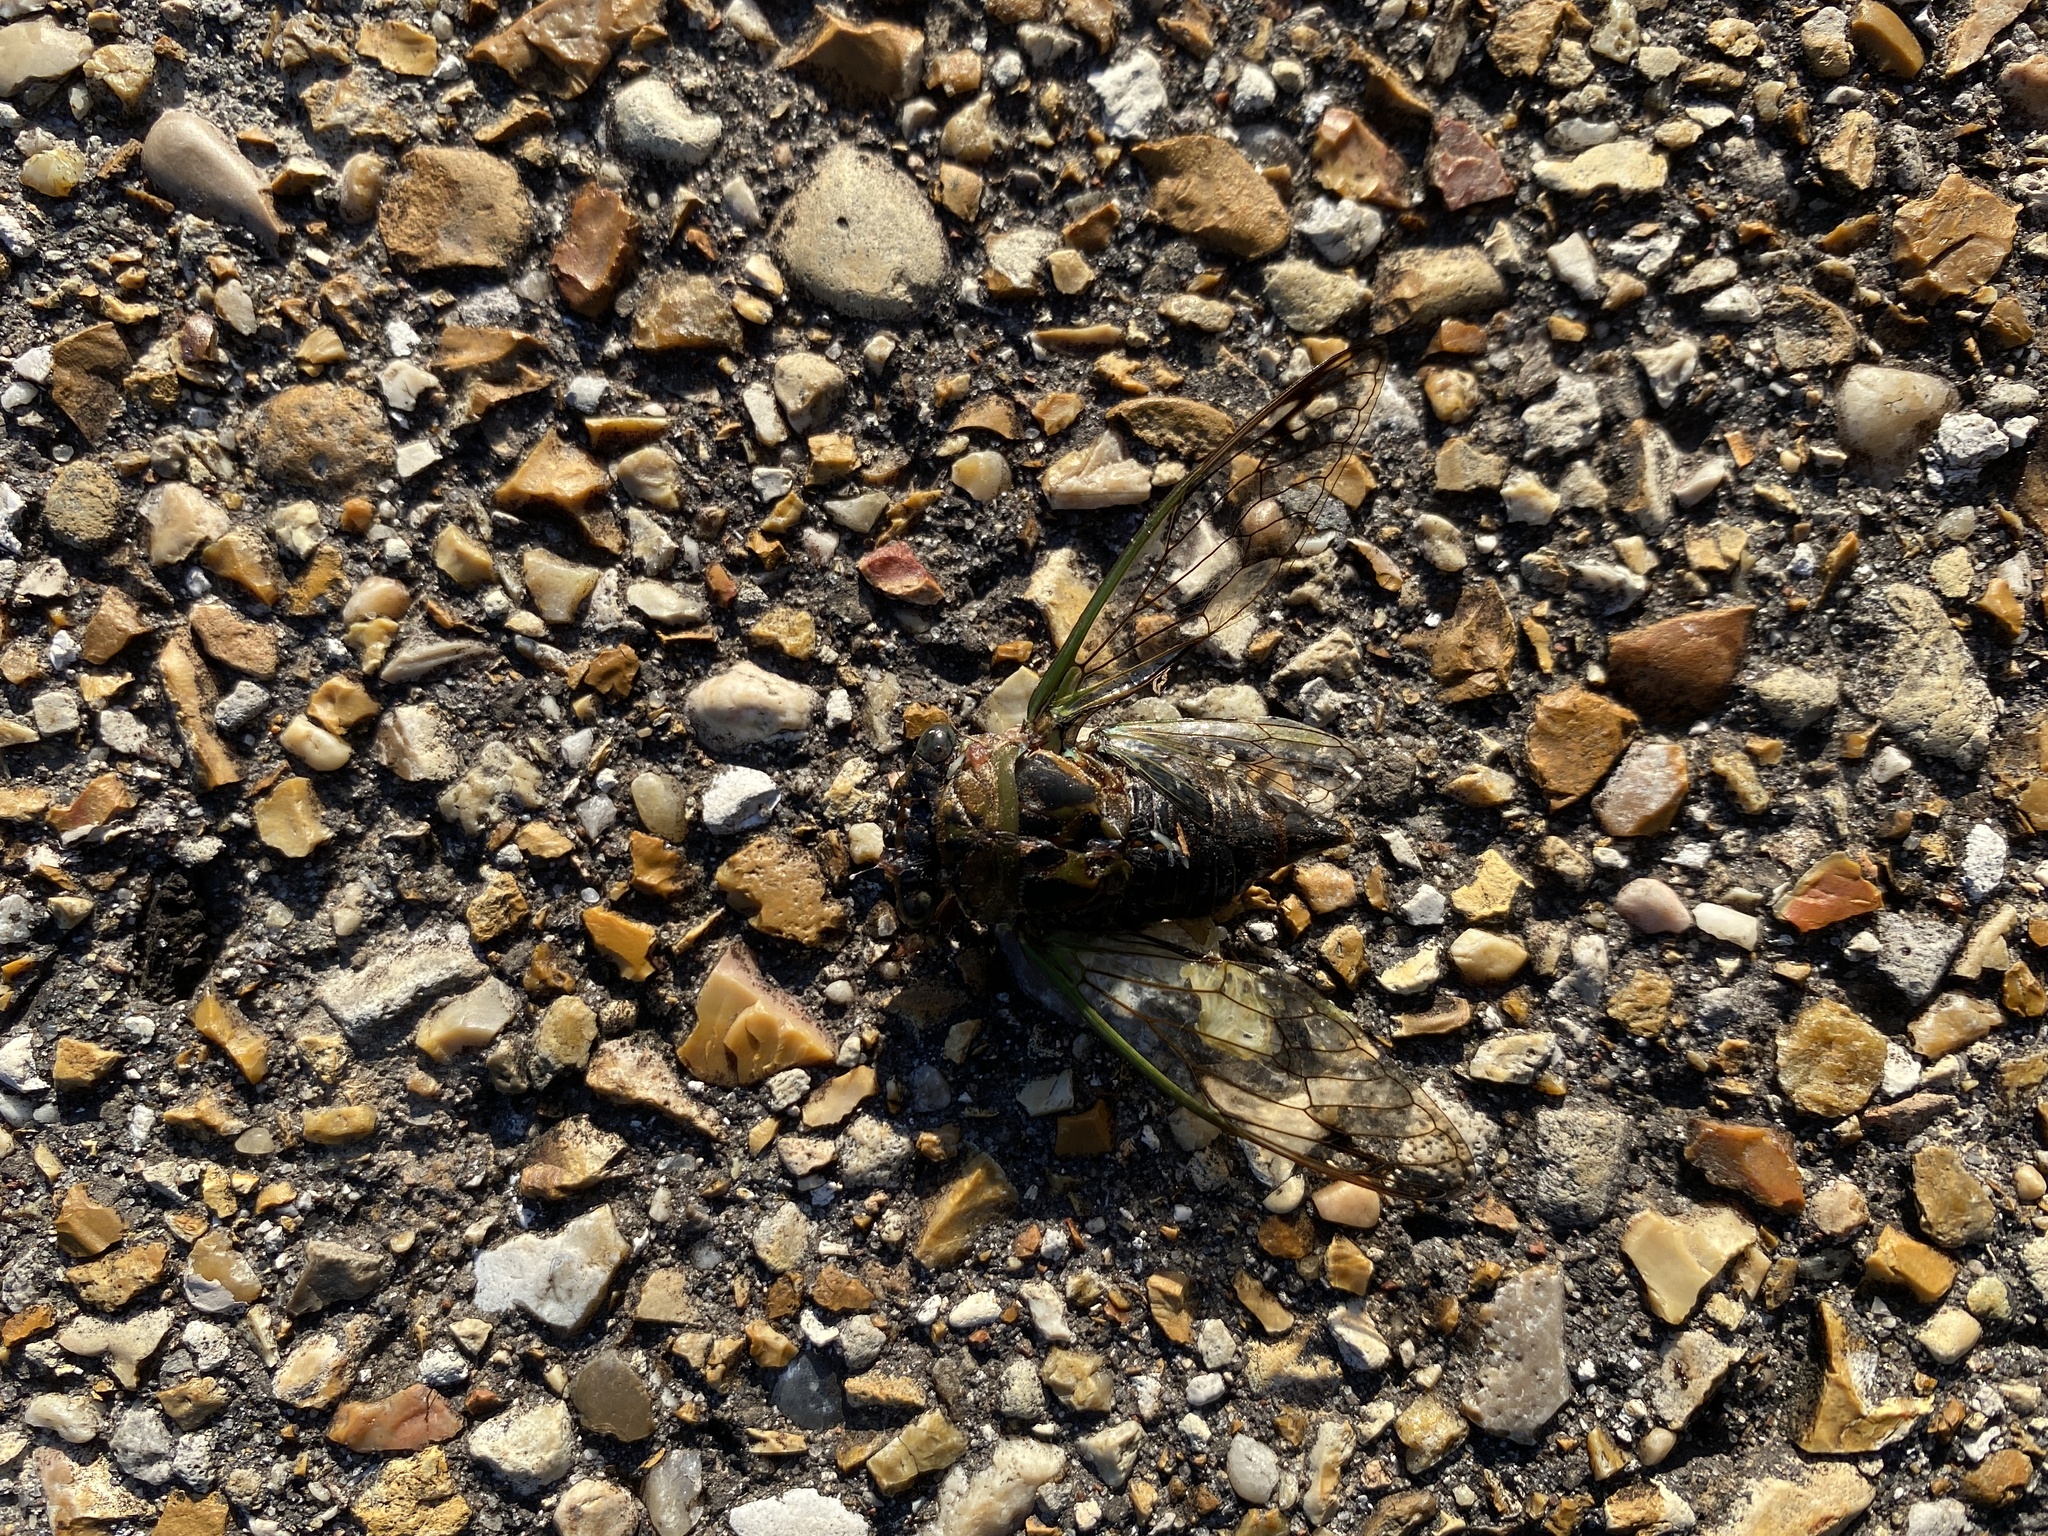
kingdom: Animalia
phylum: Arthropoda
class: Insecta
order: Hemiptera
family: Cicadidae
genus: Neotibicen
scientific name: Neotibicen davisi
